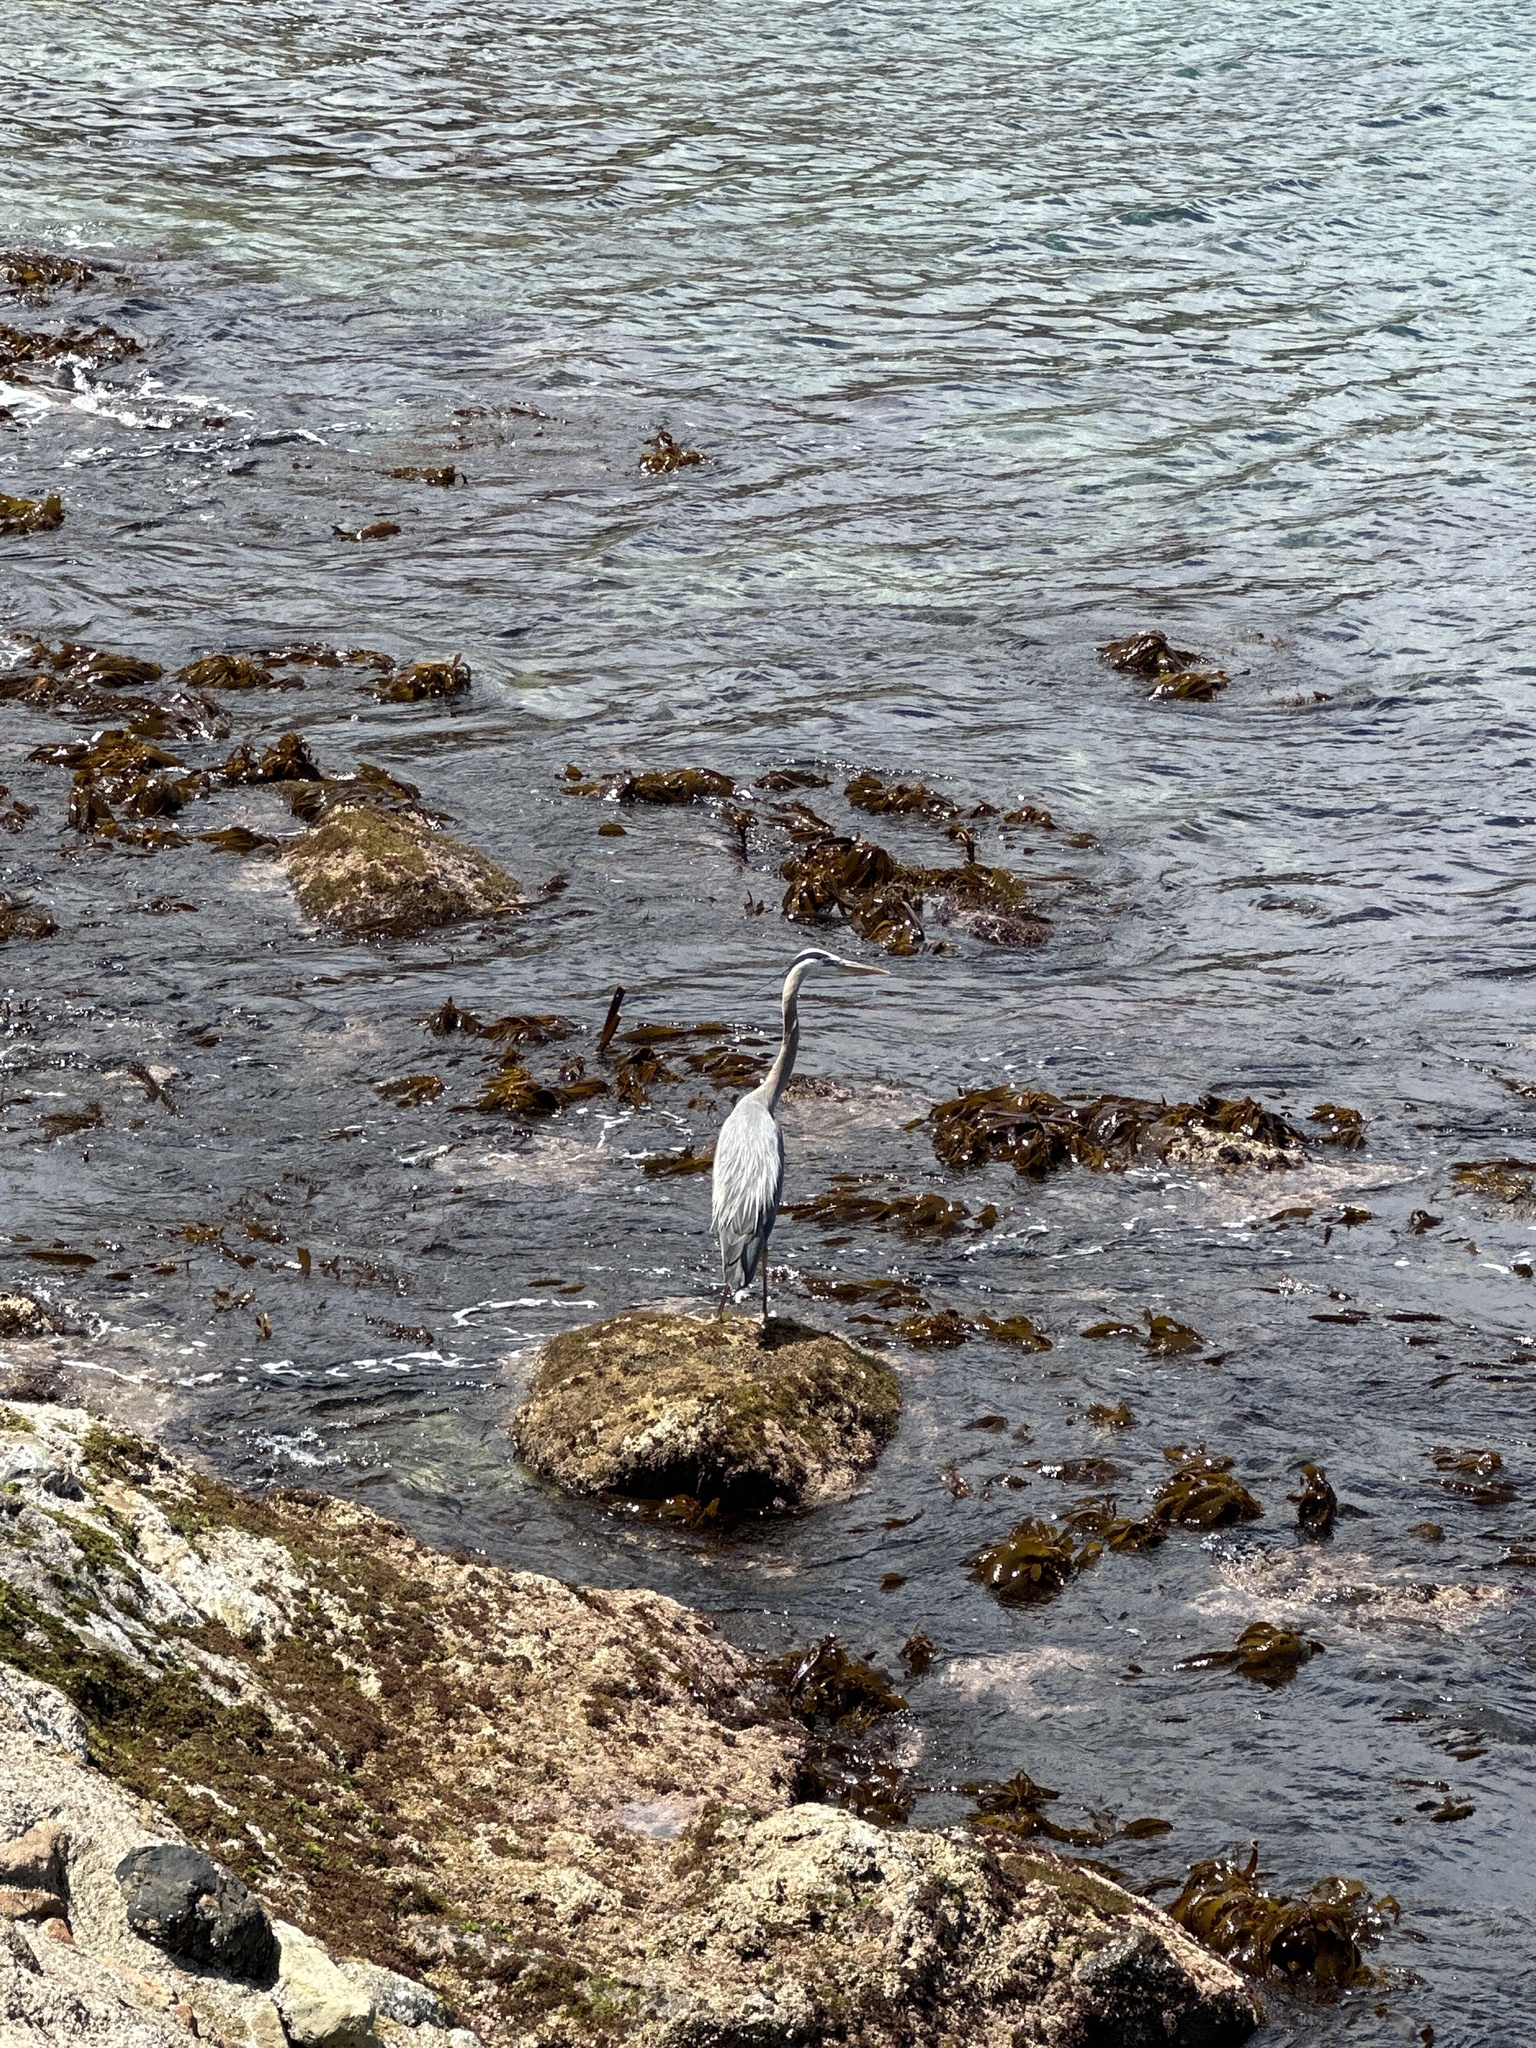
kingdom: Animalia
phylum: Chordata
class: Aves
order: Pelecaniformes
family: Ardeidae
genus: Ardea
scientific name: Ardea herodias
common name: Great blue heron
